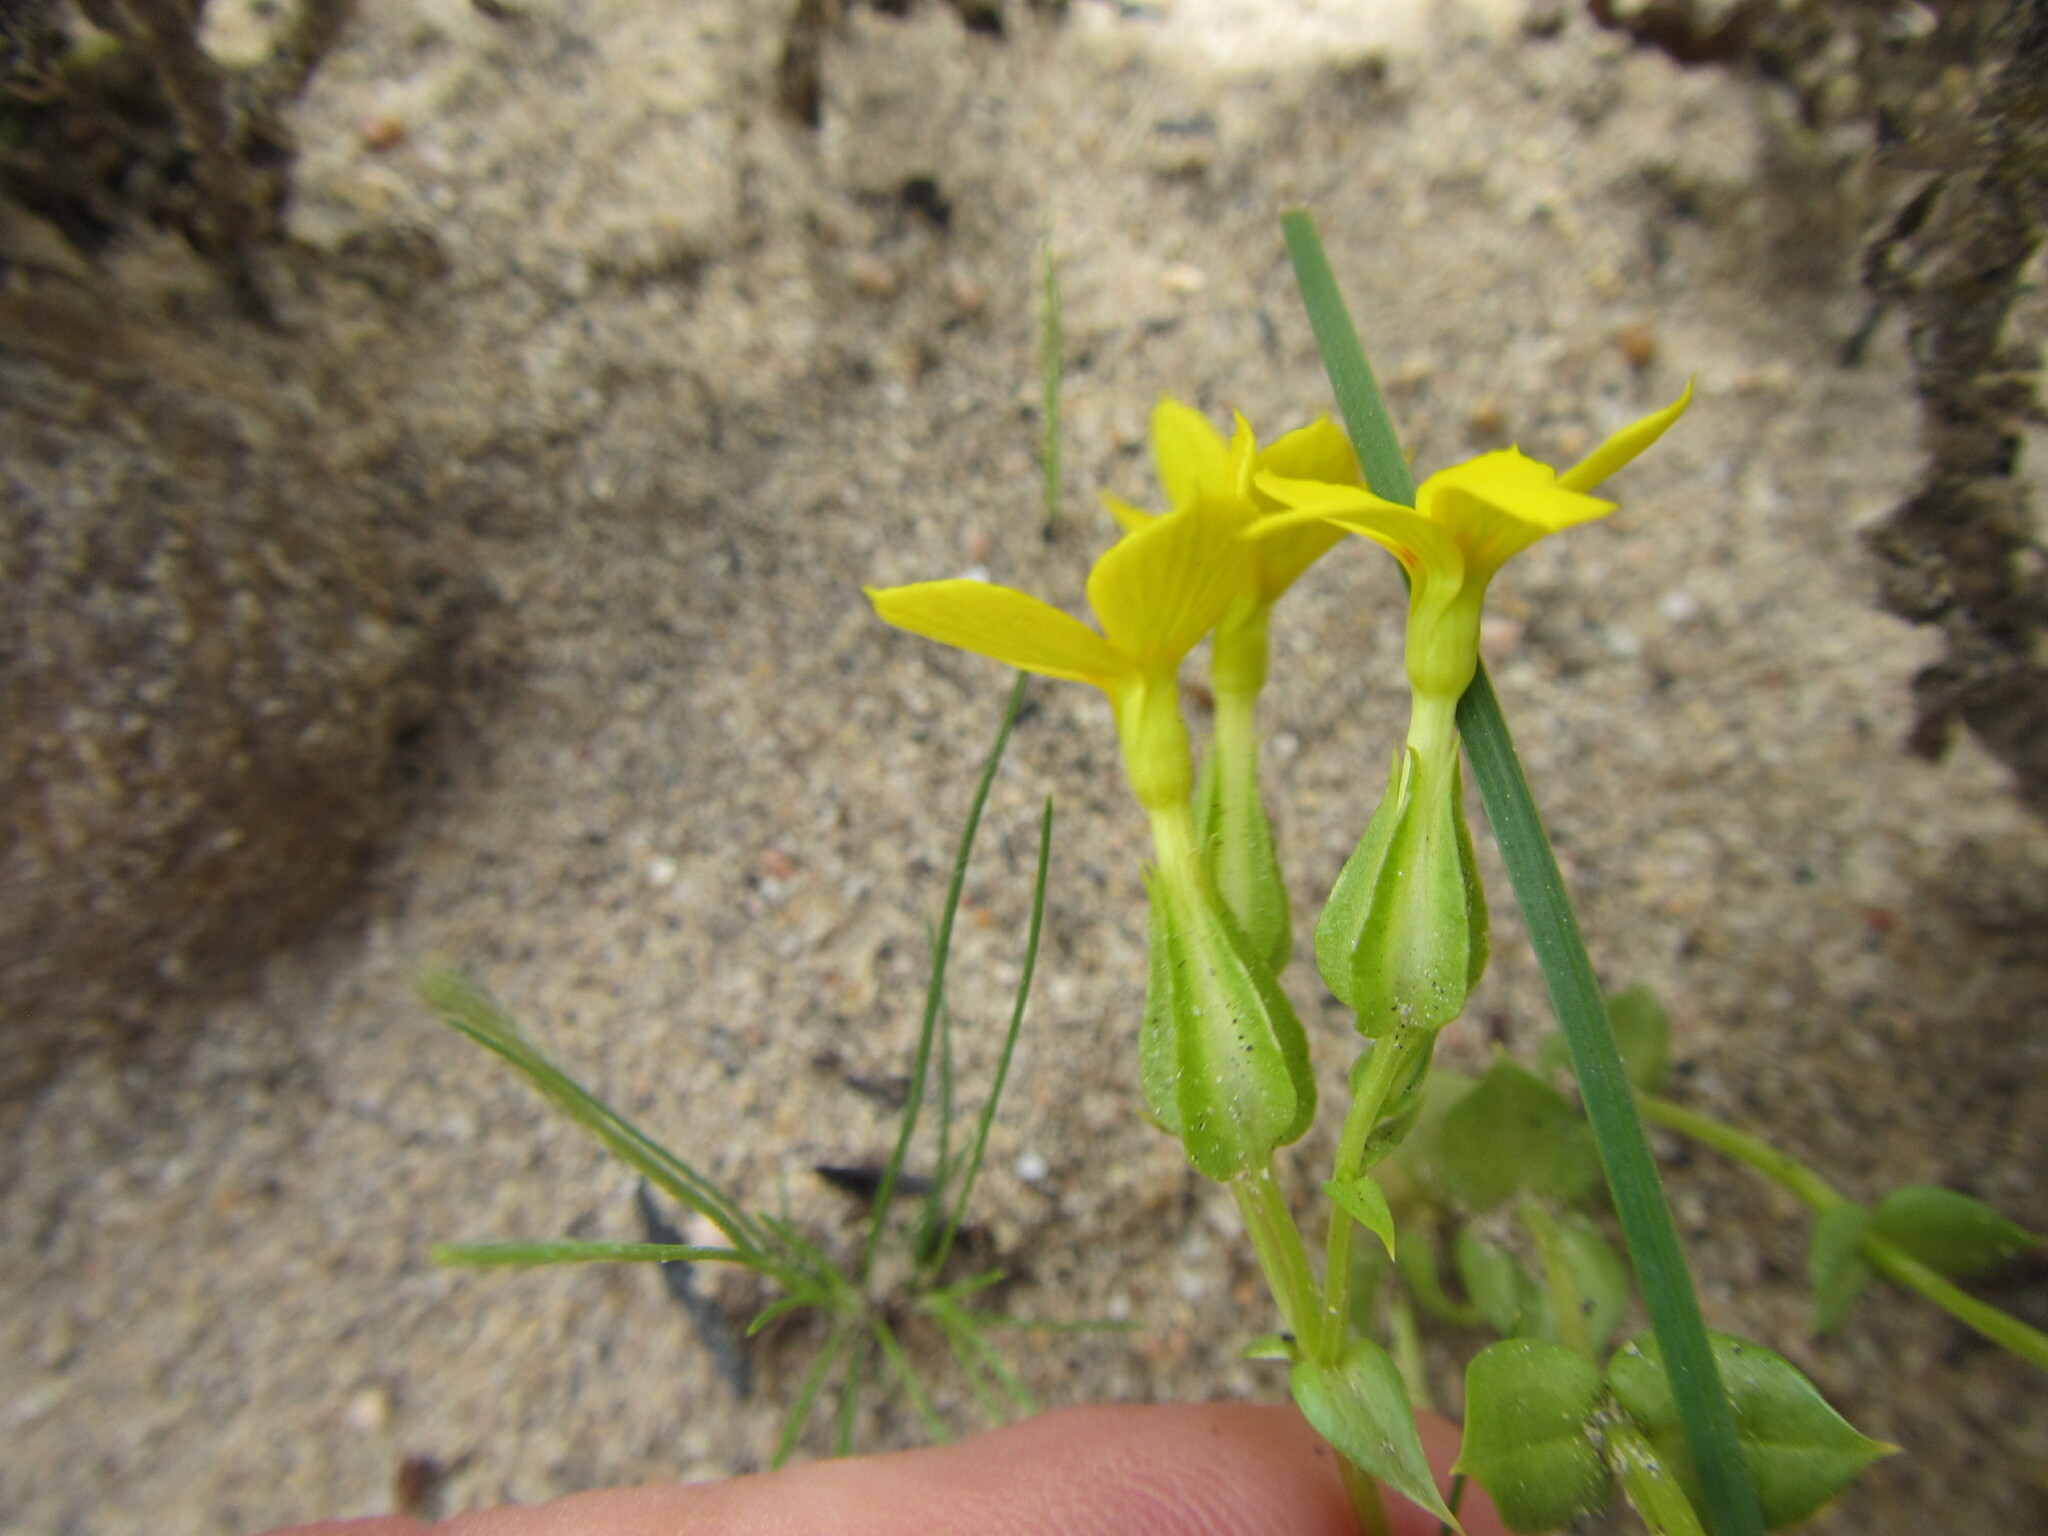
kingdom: Plantae
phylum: Tracheophyta
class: Magnoliopsida
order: Gentianales
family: Gentianaceae
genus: Sebaea
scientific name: Sebaea exacoides
